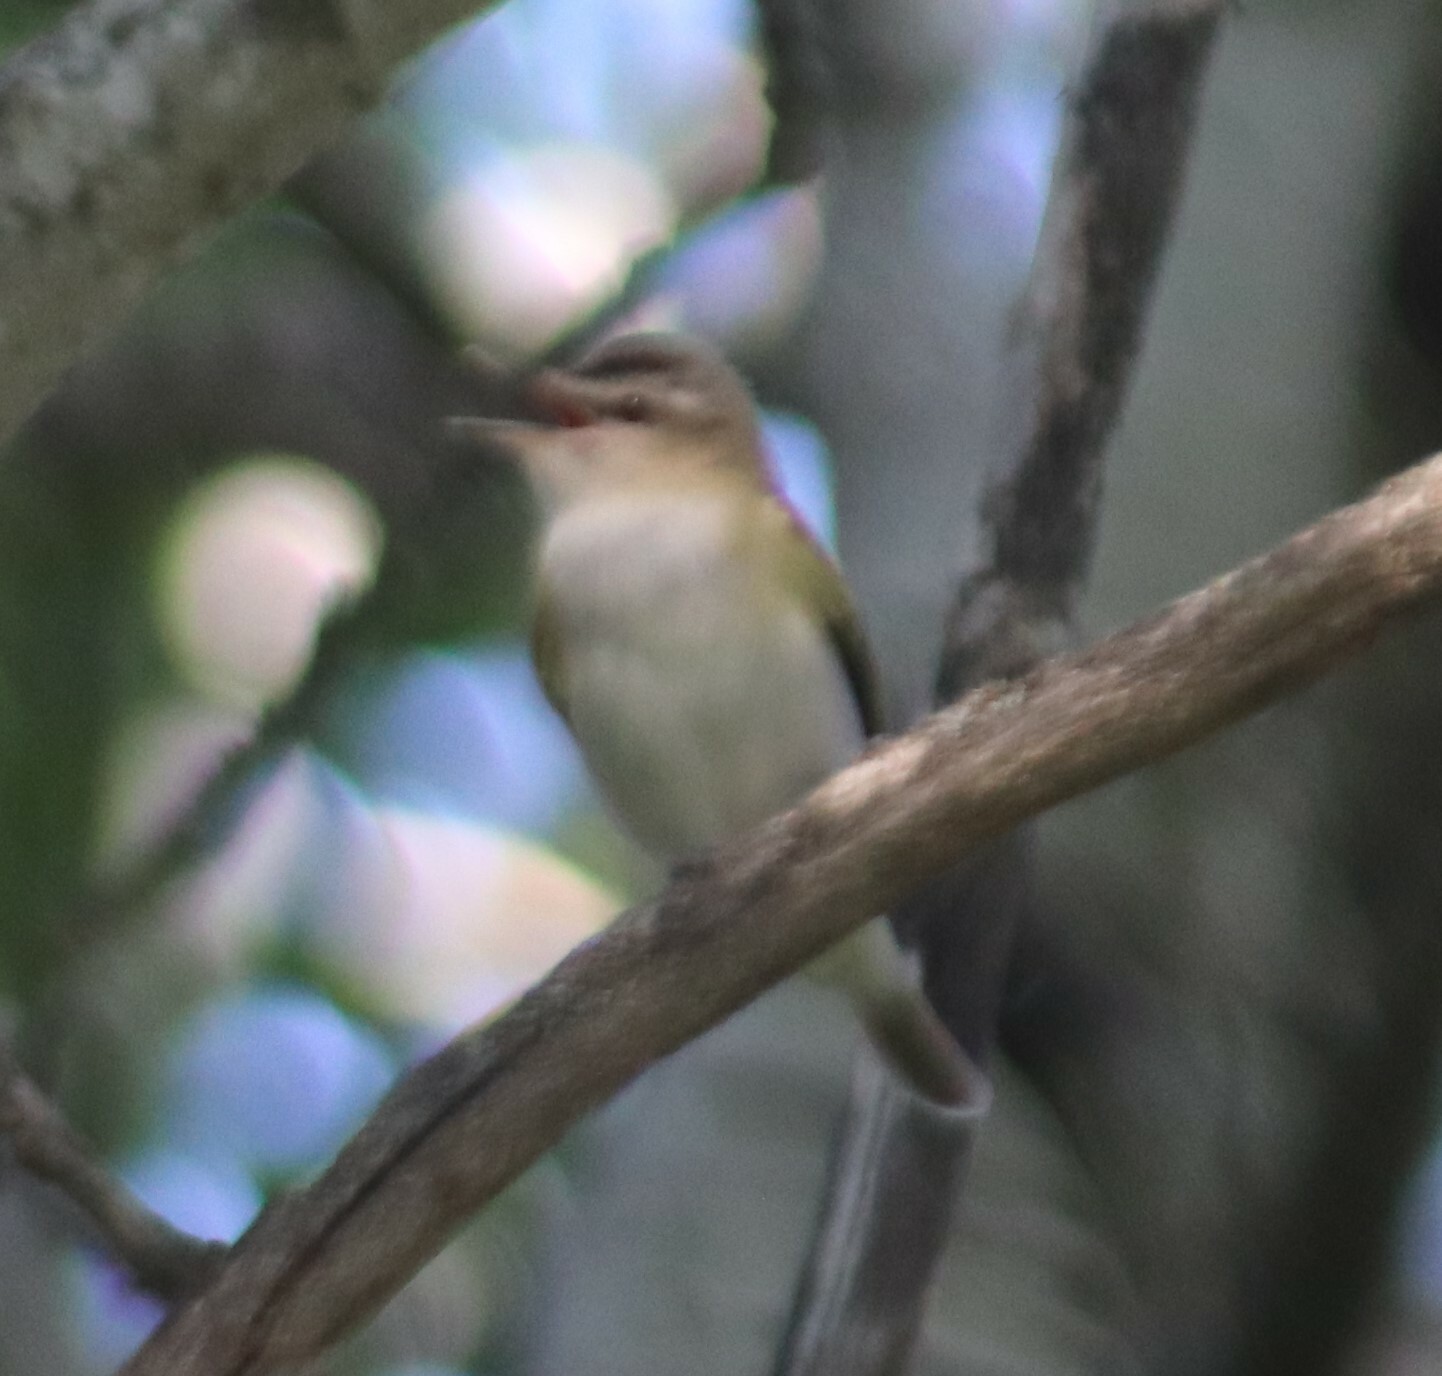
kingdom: Animalia
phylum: Chordata
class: Aves
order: Passeriformes
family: Vireonidae
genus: Vireo
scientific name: Vireo olivaceus
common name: Red-eyed vireo
